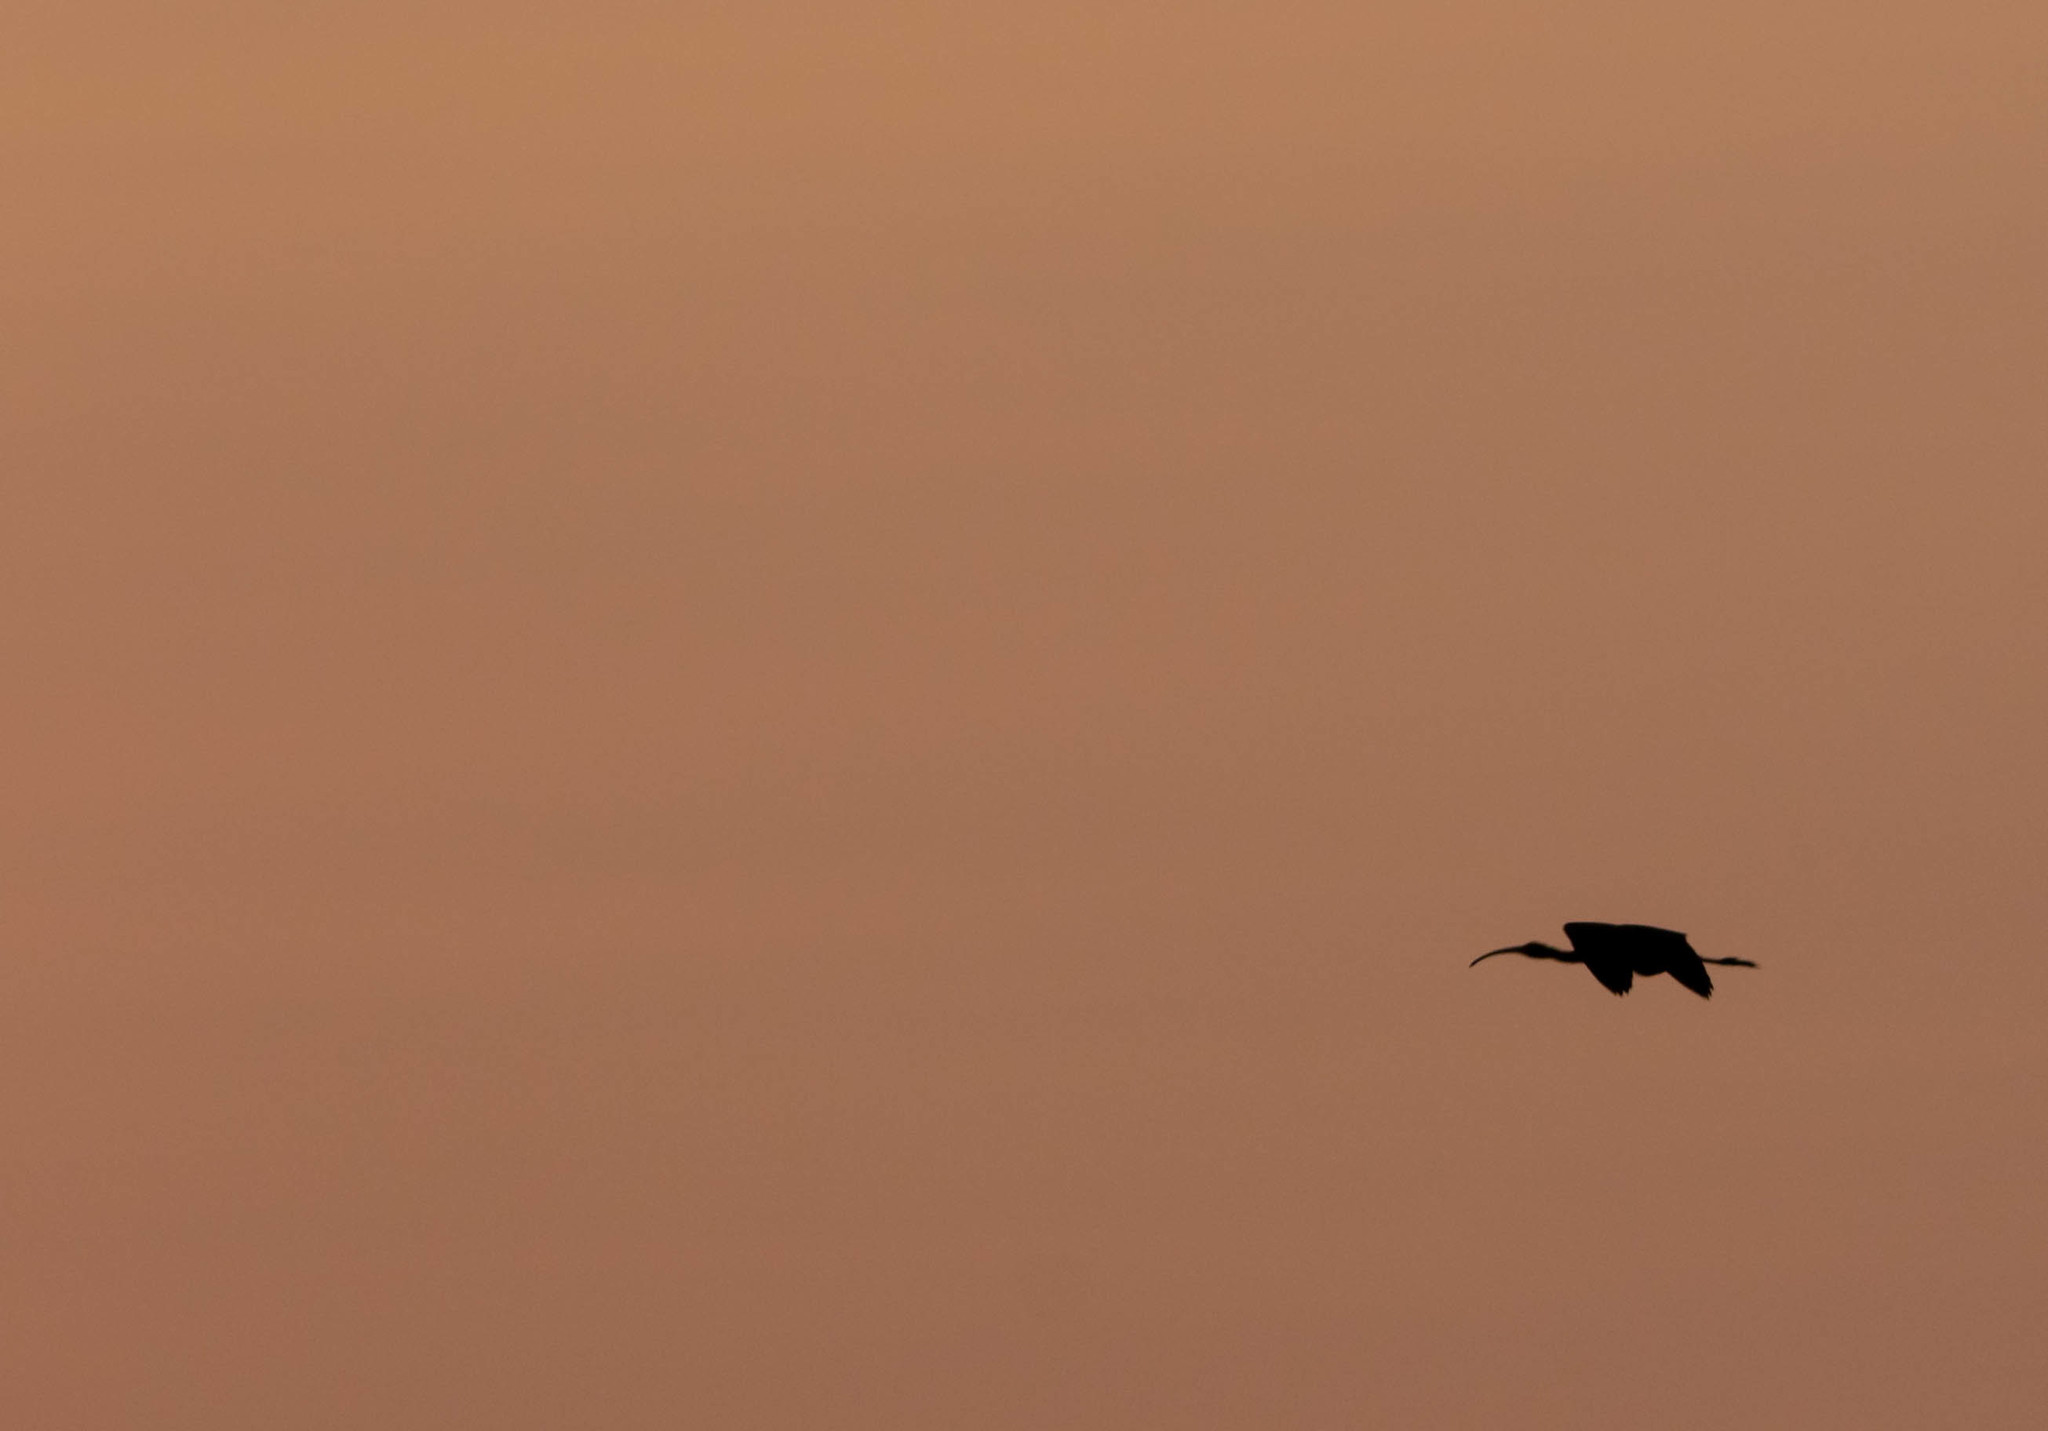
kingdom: Animalia
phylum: Chordata
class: Aves
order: Pelecaniformes
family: Threskiornithidae
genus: Plegadis
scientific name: Plegadis
